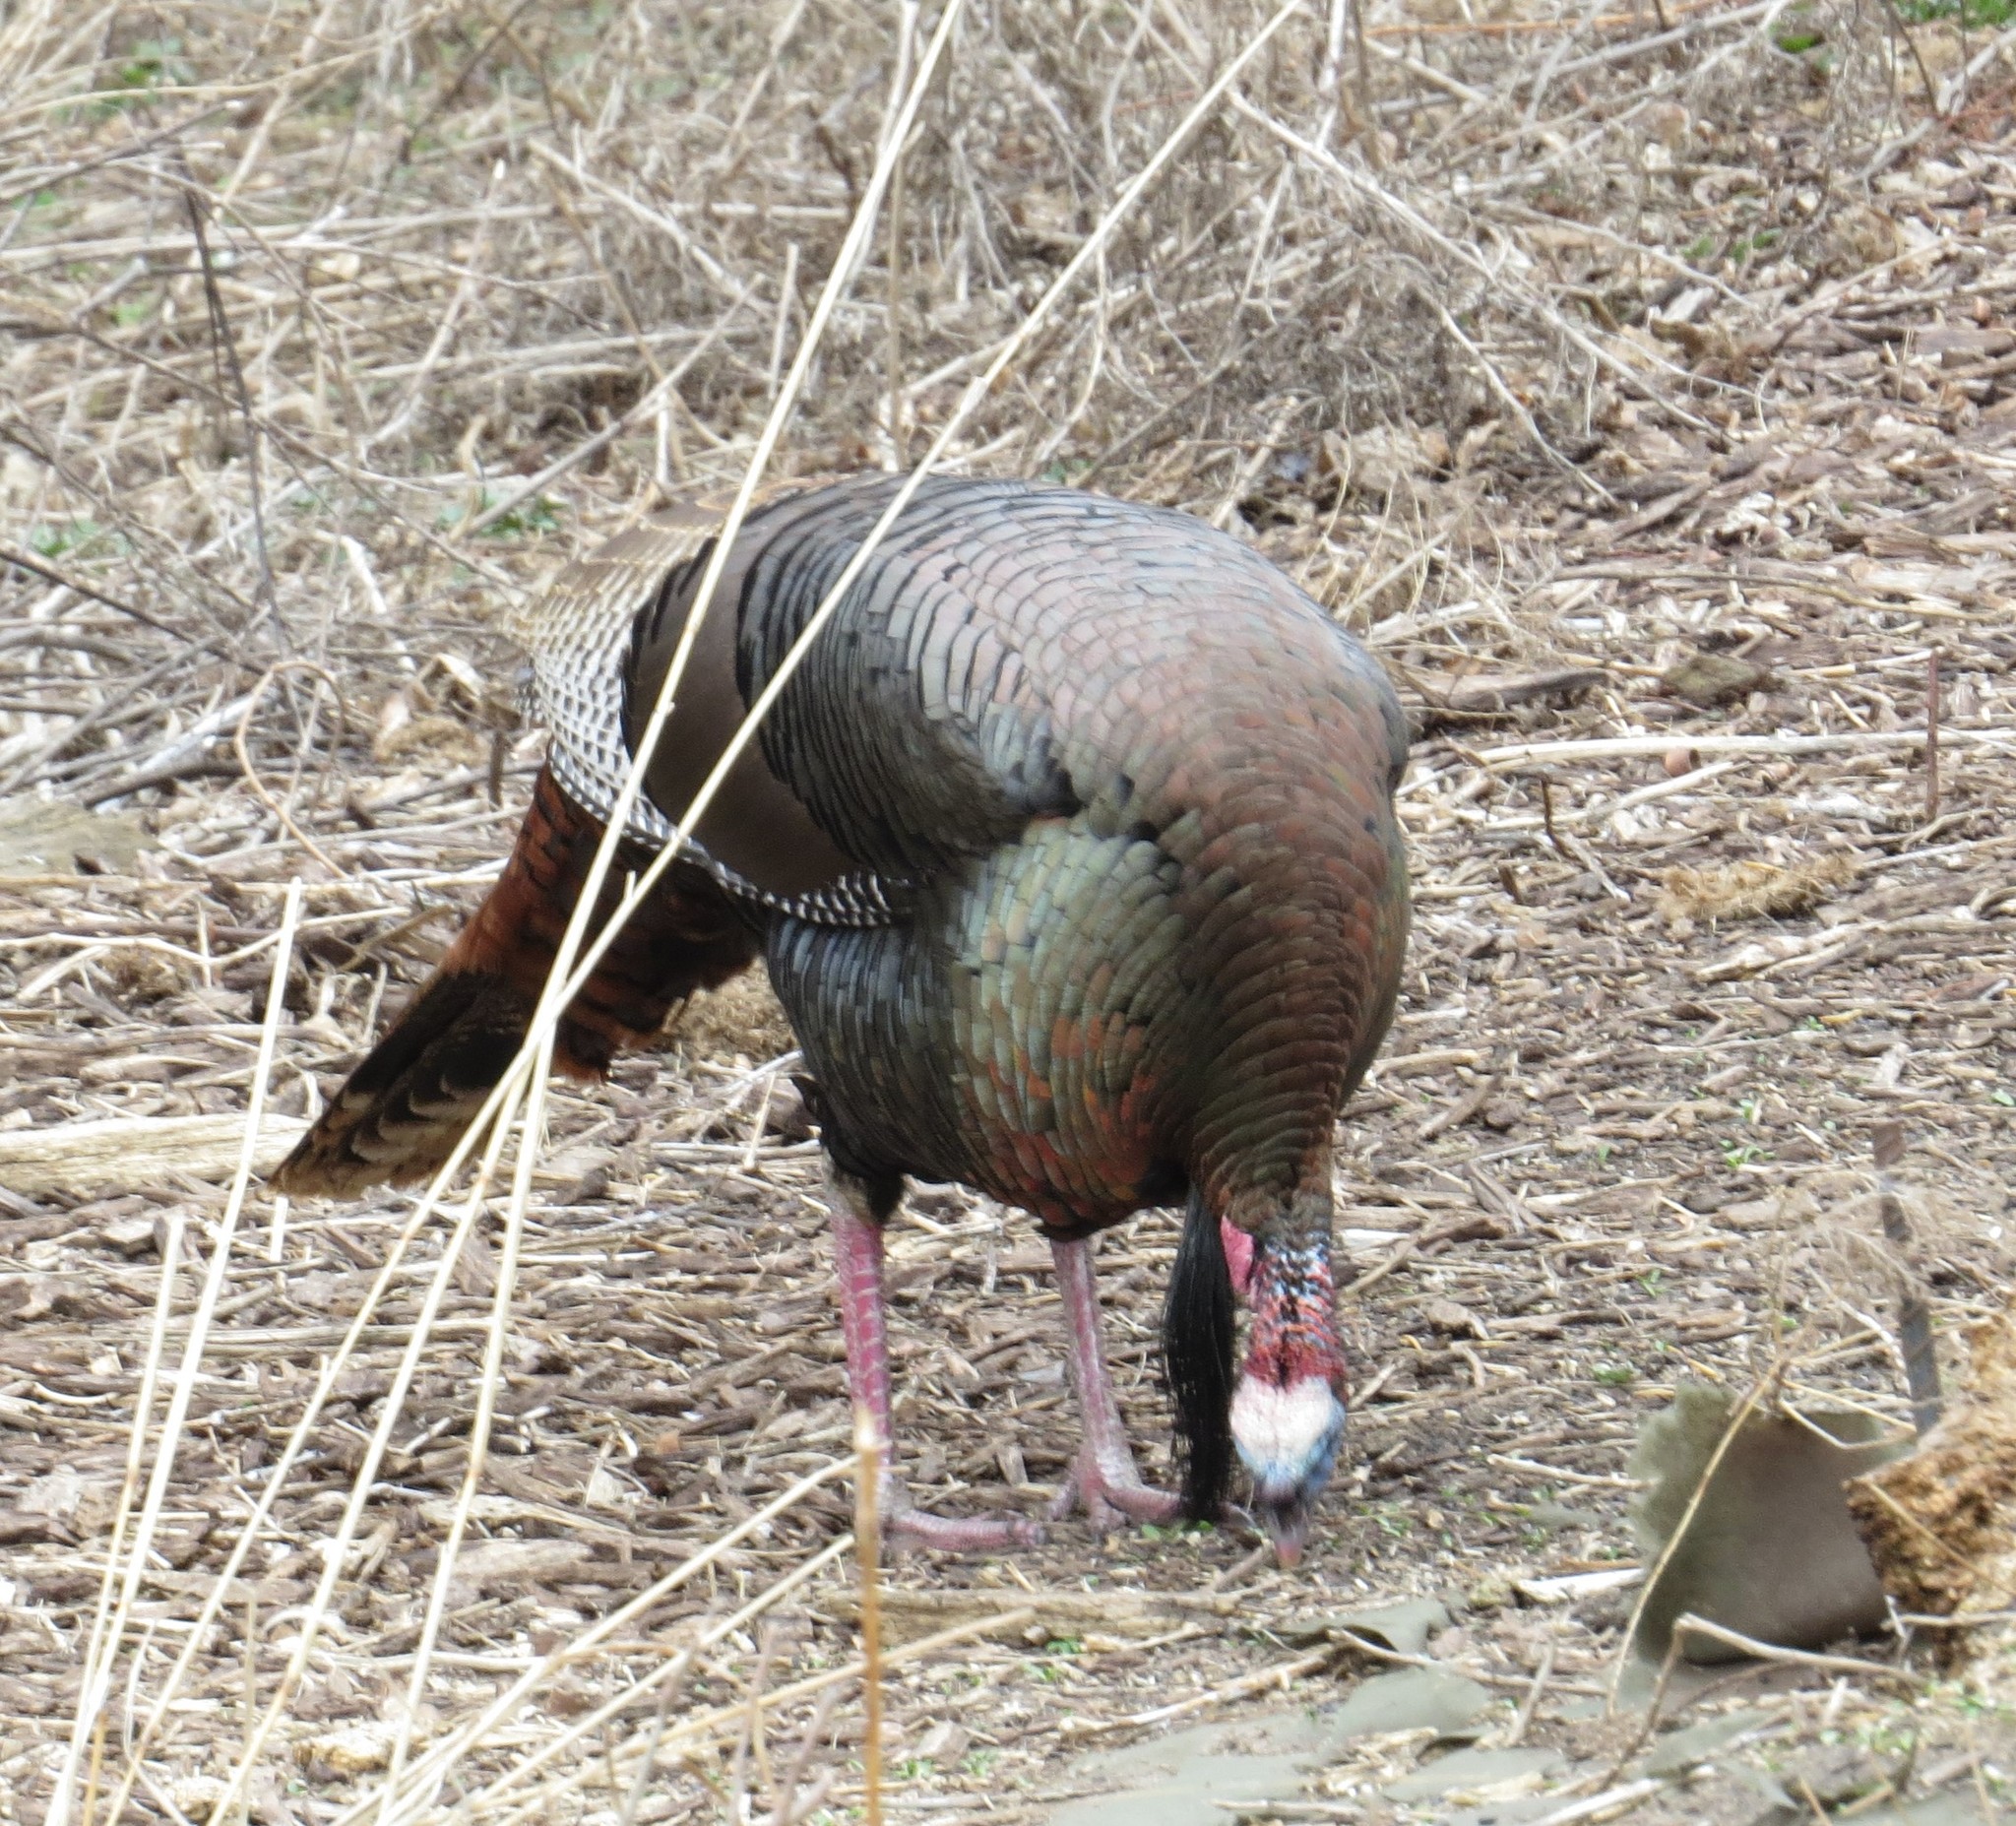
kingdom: Animalia
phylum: Chordata
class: Aves
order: Galliformes
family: Phasianidae
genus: Meleagris
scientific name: Meleagris gallopavo
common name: Wild turkey
